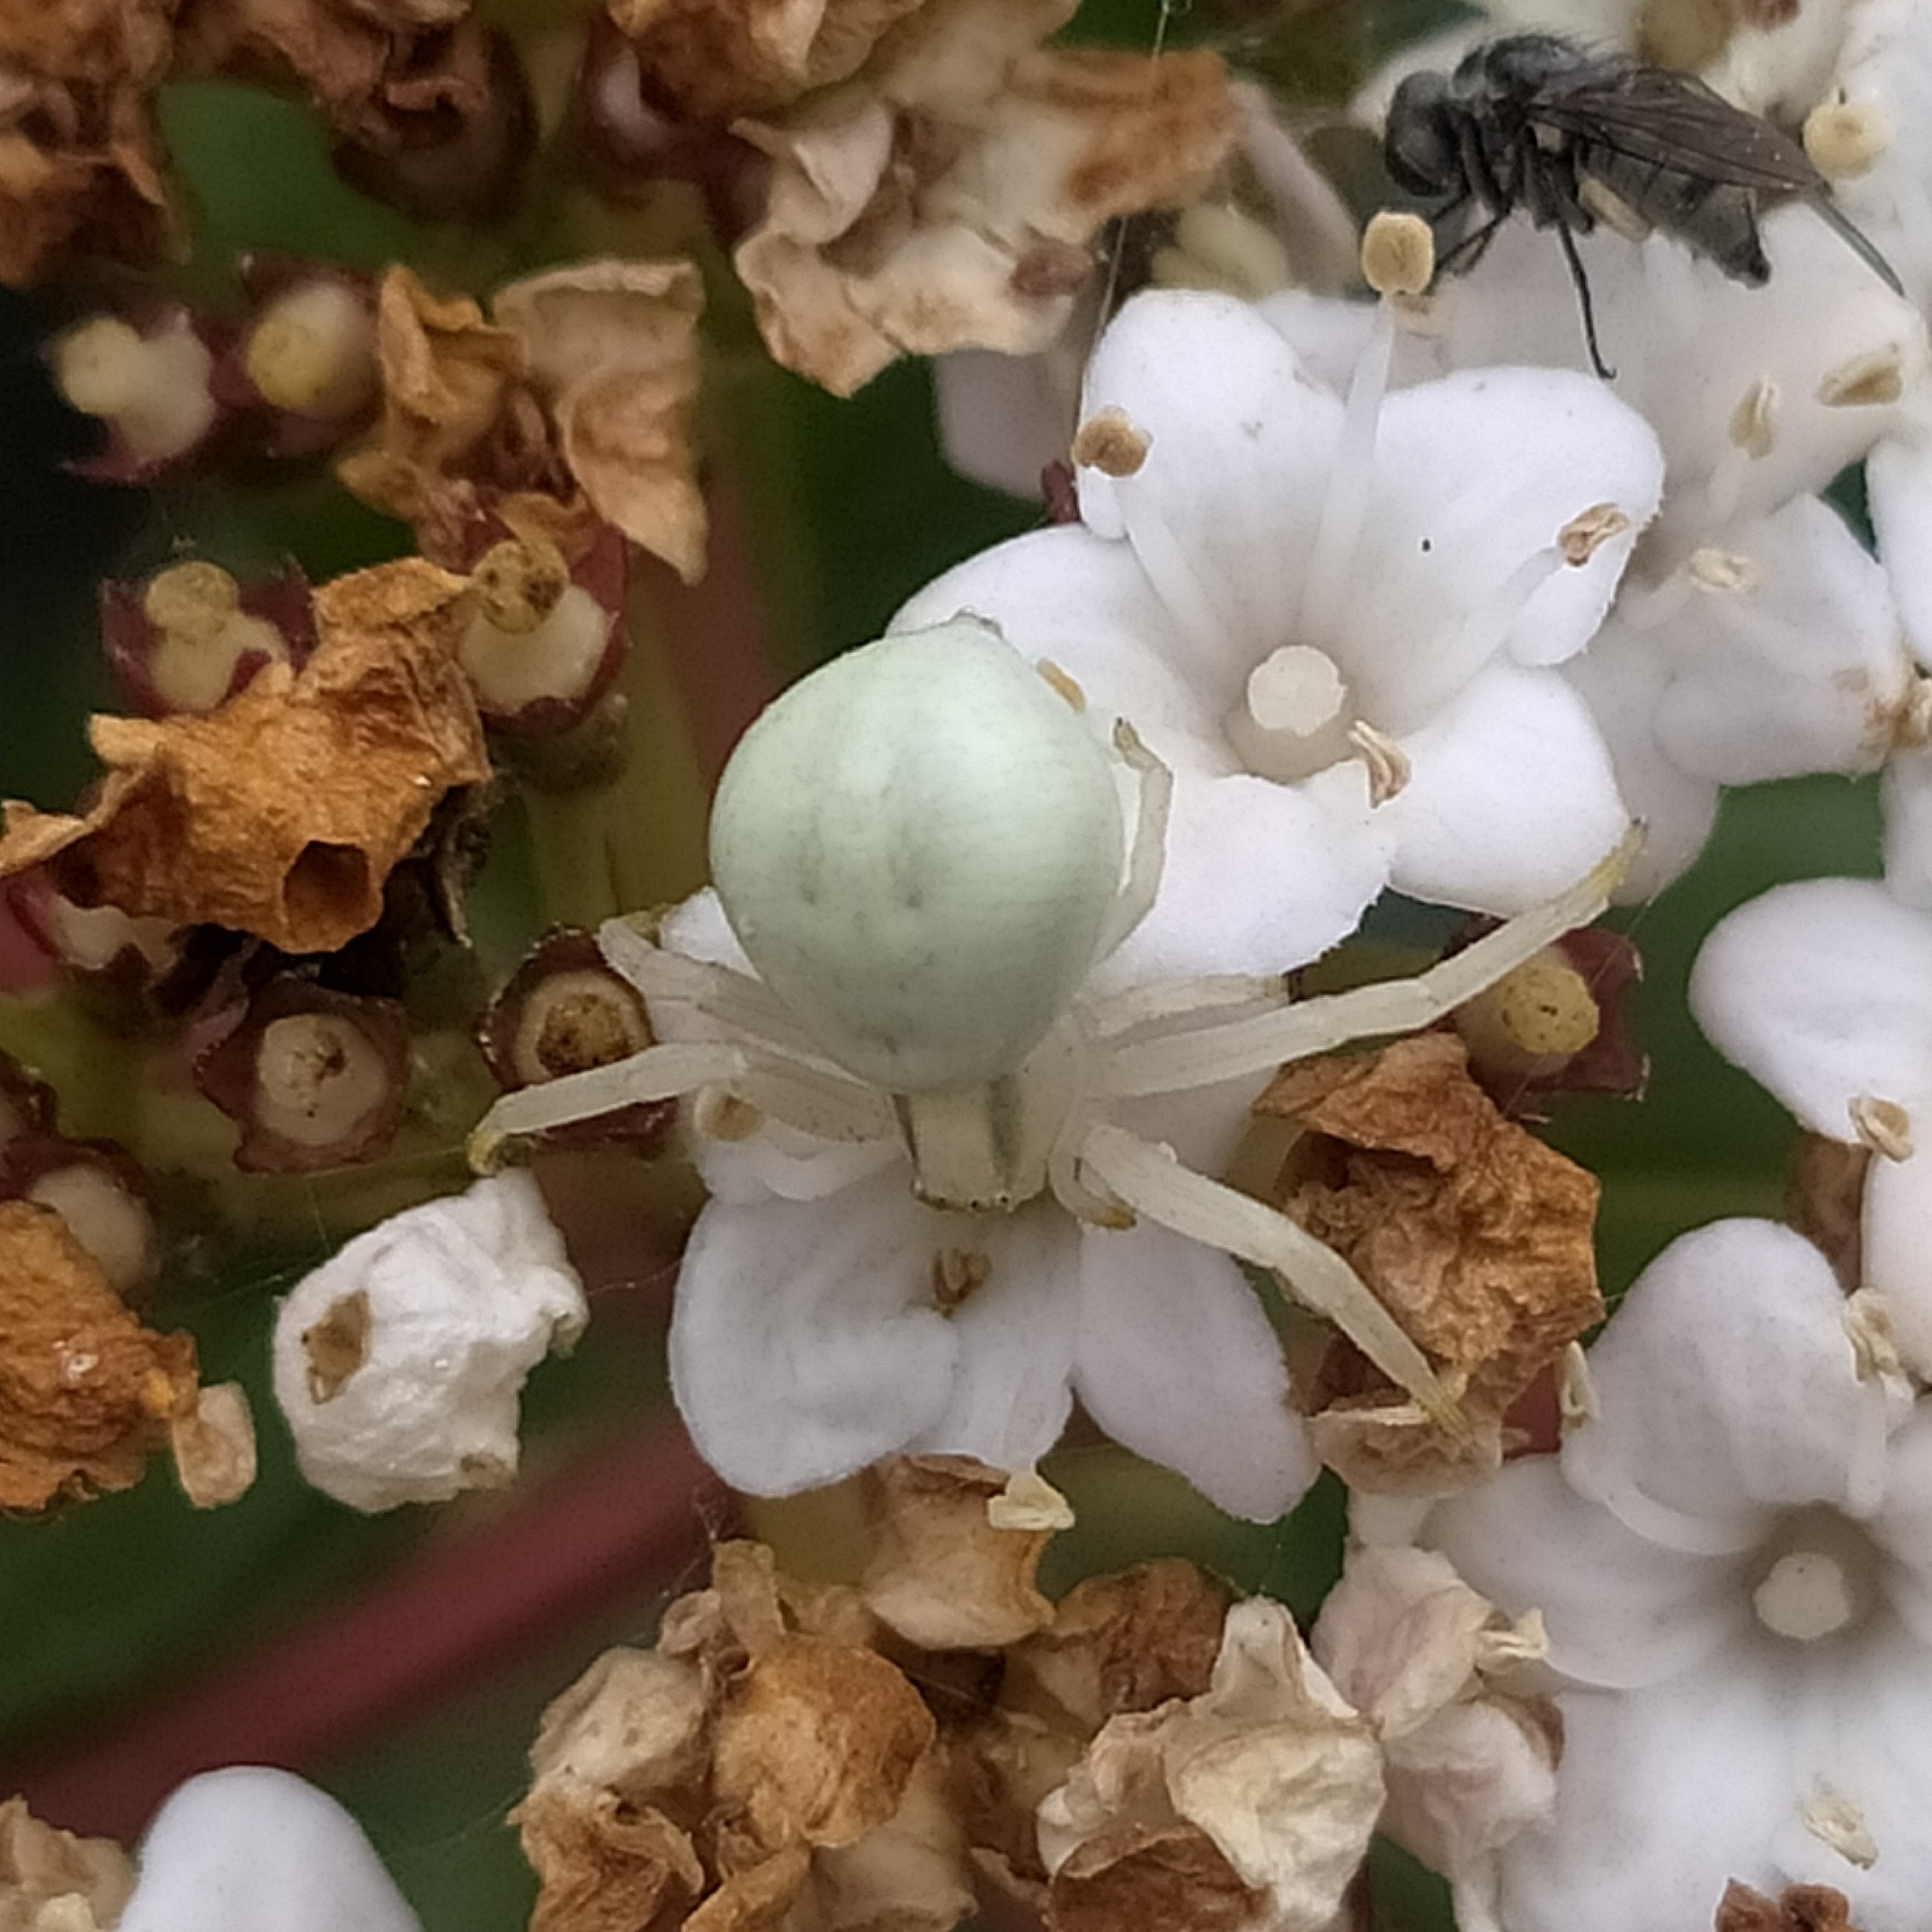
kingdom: Animalia
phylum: Arthropoda
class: Arachnida
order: Araneae
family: Thomisidae
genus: Misumena
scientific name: Misumena vatia
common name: Goldenrod crab spider
